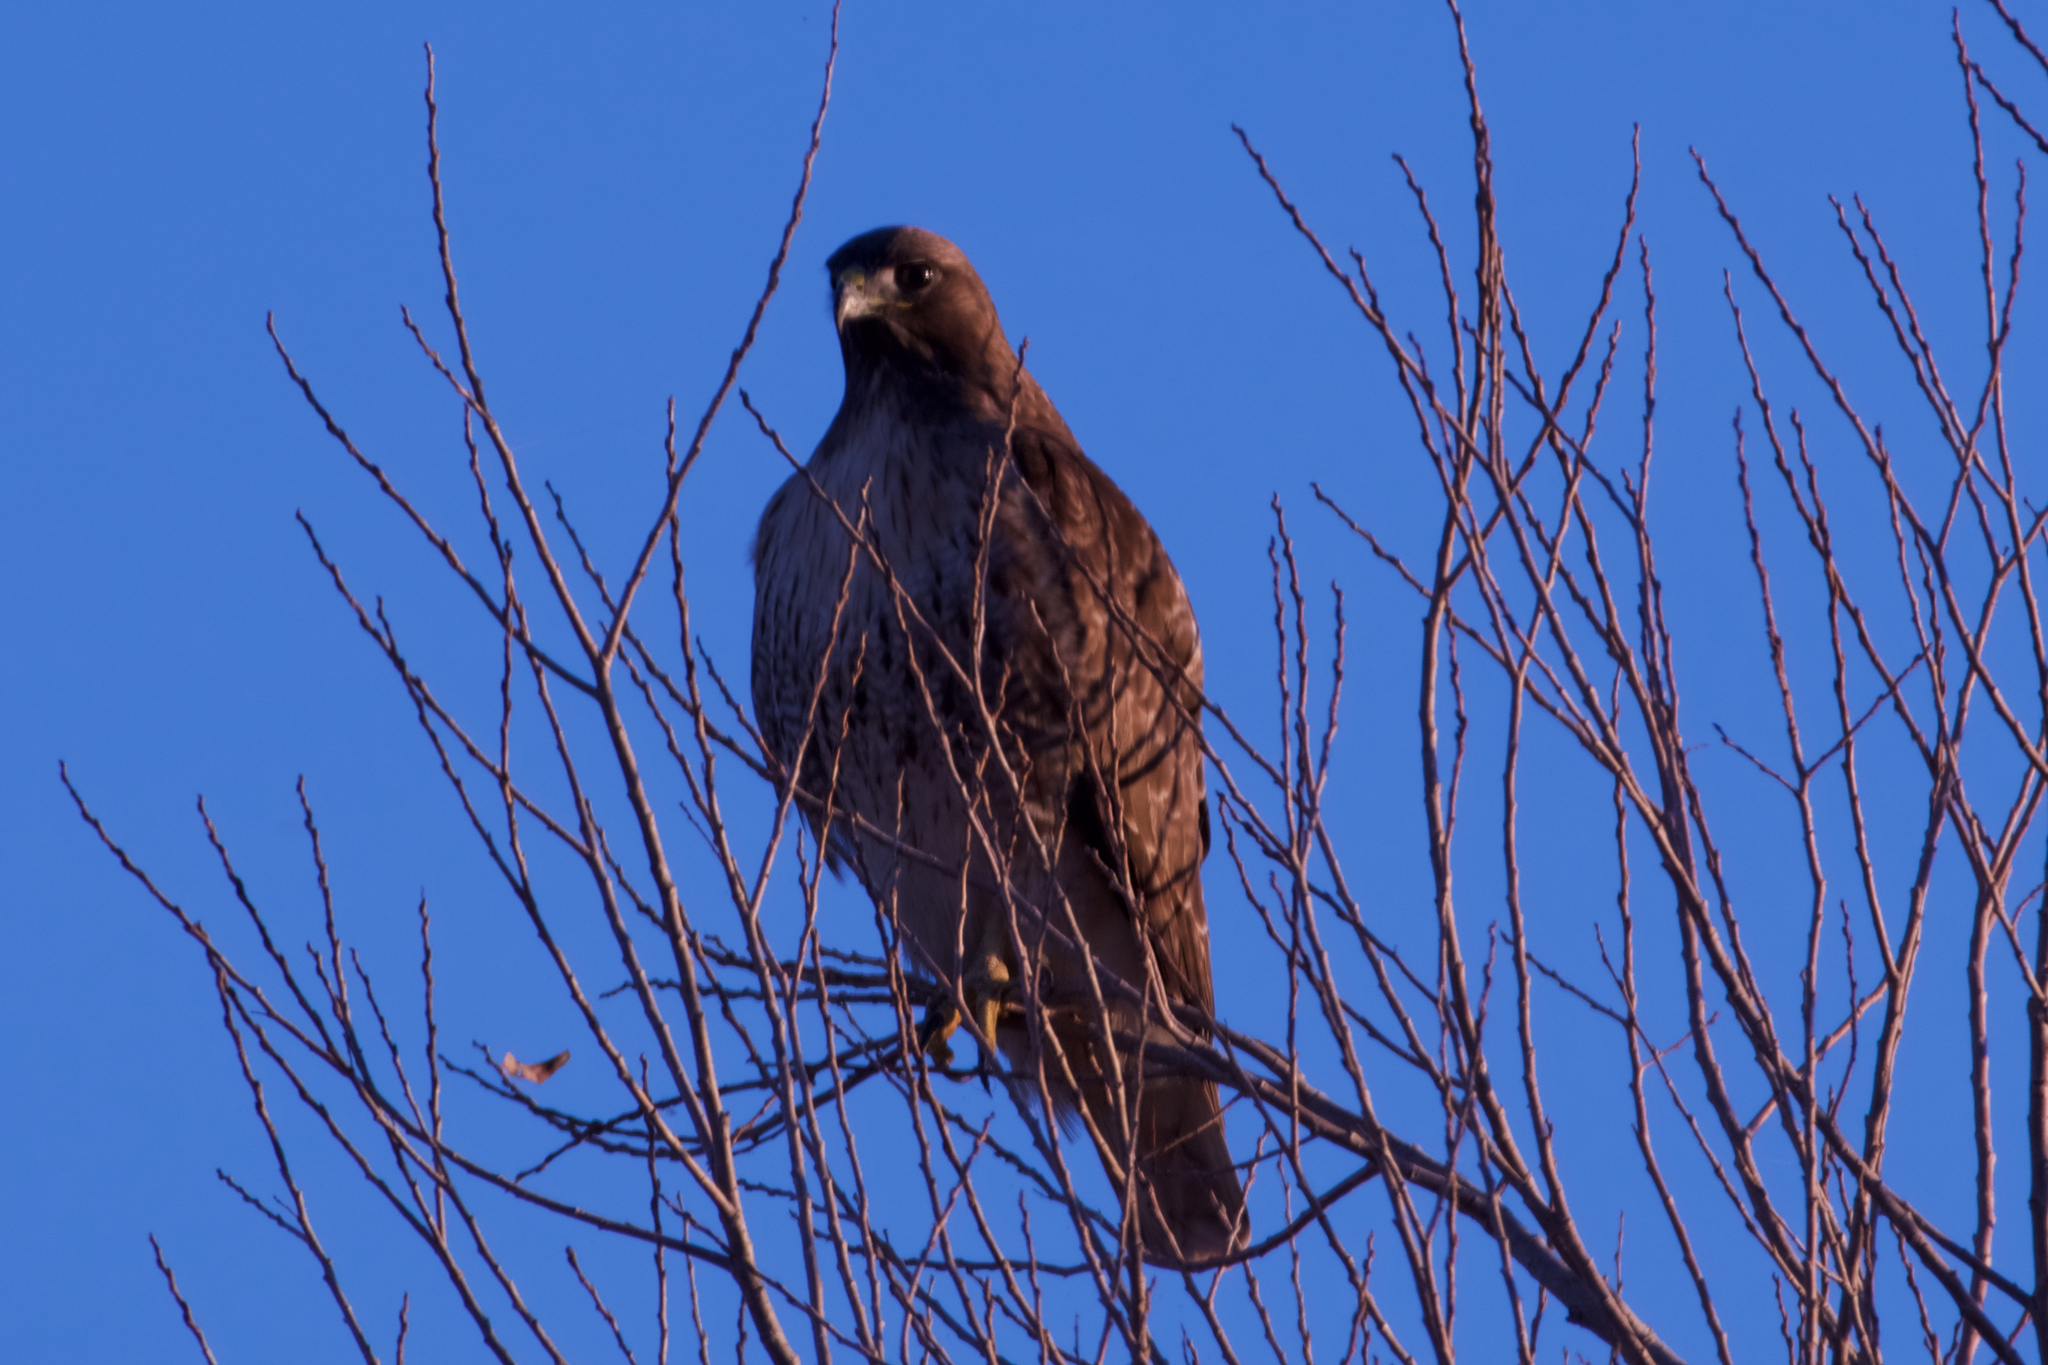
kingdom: Animalia
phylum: Chordata
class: Aves
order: Accipitriformes
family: Accipitridae
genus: Buteo
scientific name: Buteo jamaicensis
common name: Red-tailed hawk
